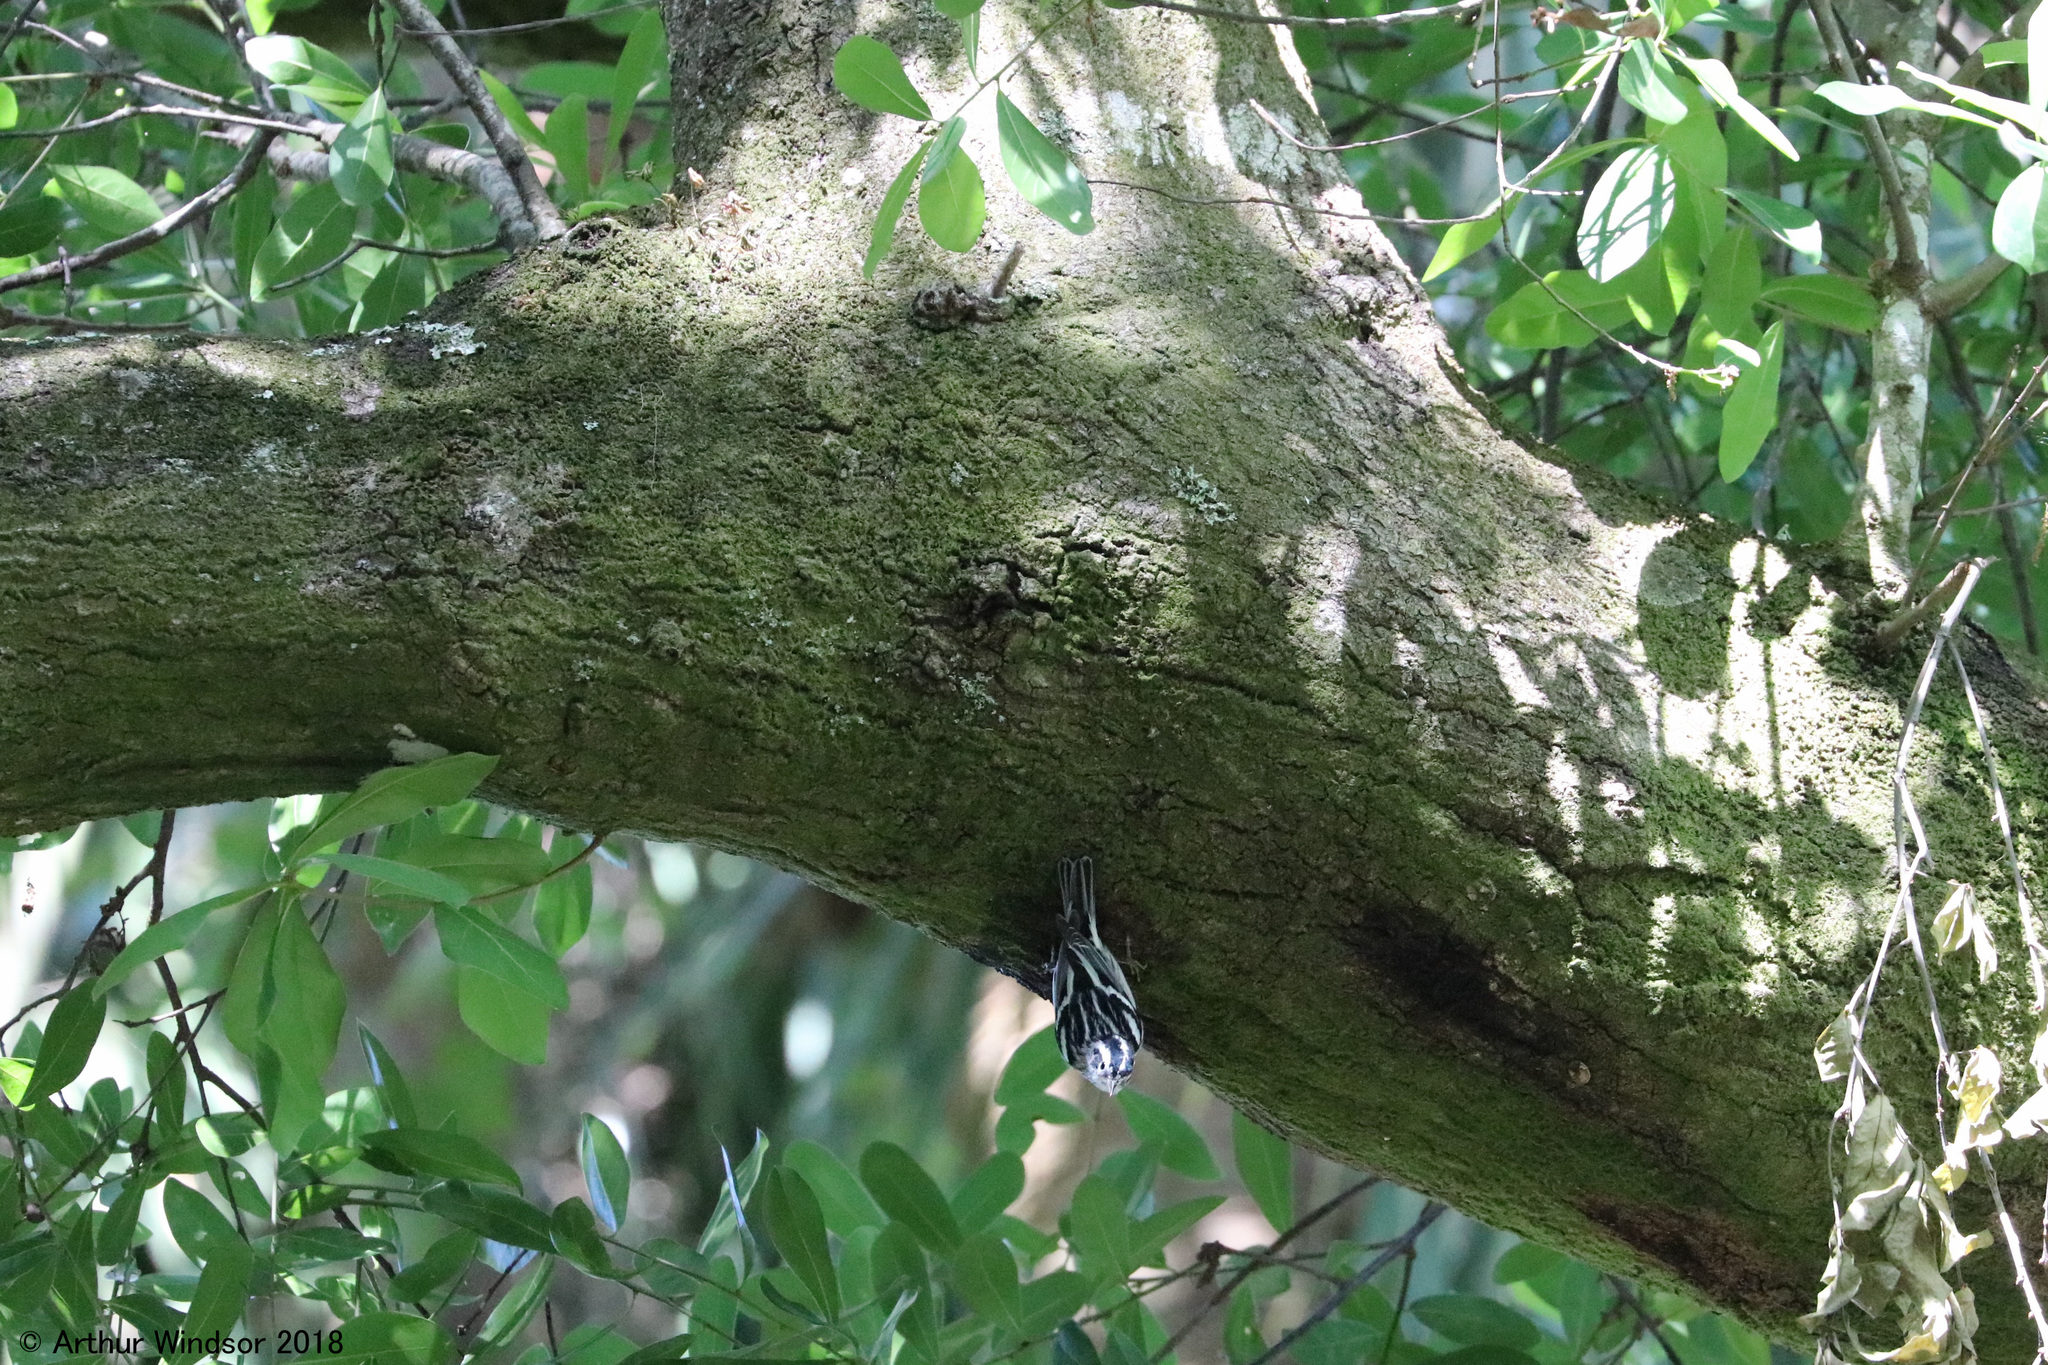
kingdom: Animalia
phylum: Chordata
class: Aves
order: Passeriformes
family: Parulidae
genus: Mniotilta
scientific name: Mniotilta varia
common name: Black-and-white warbler
